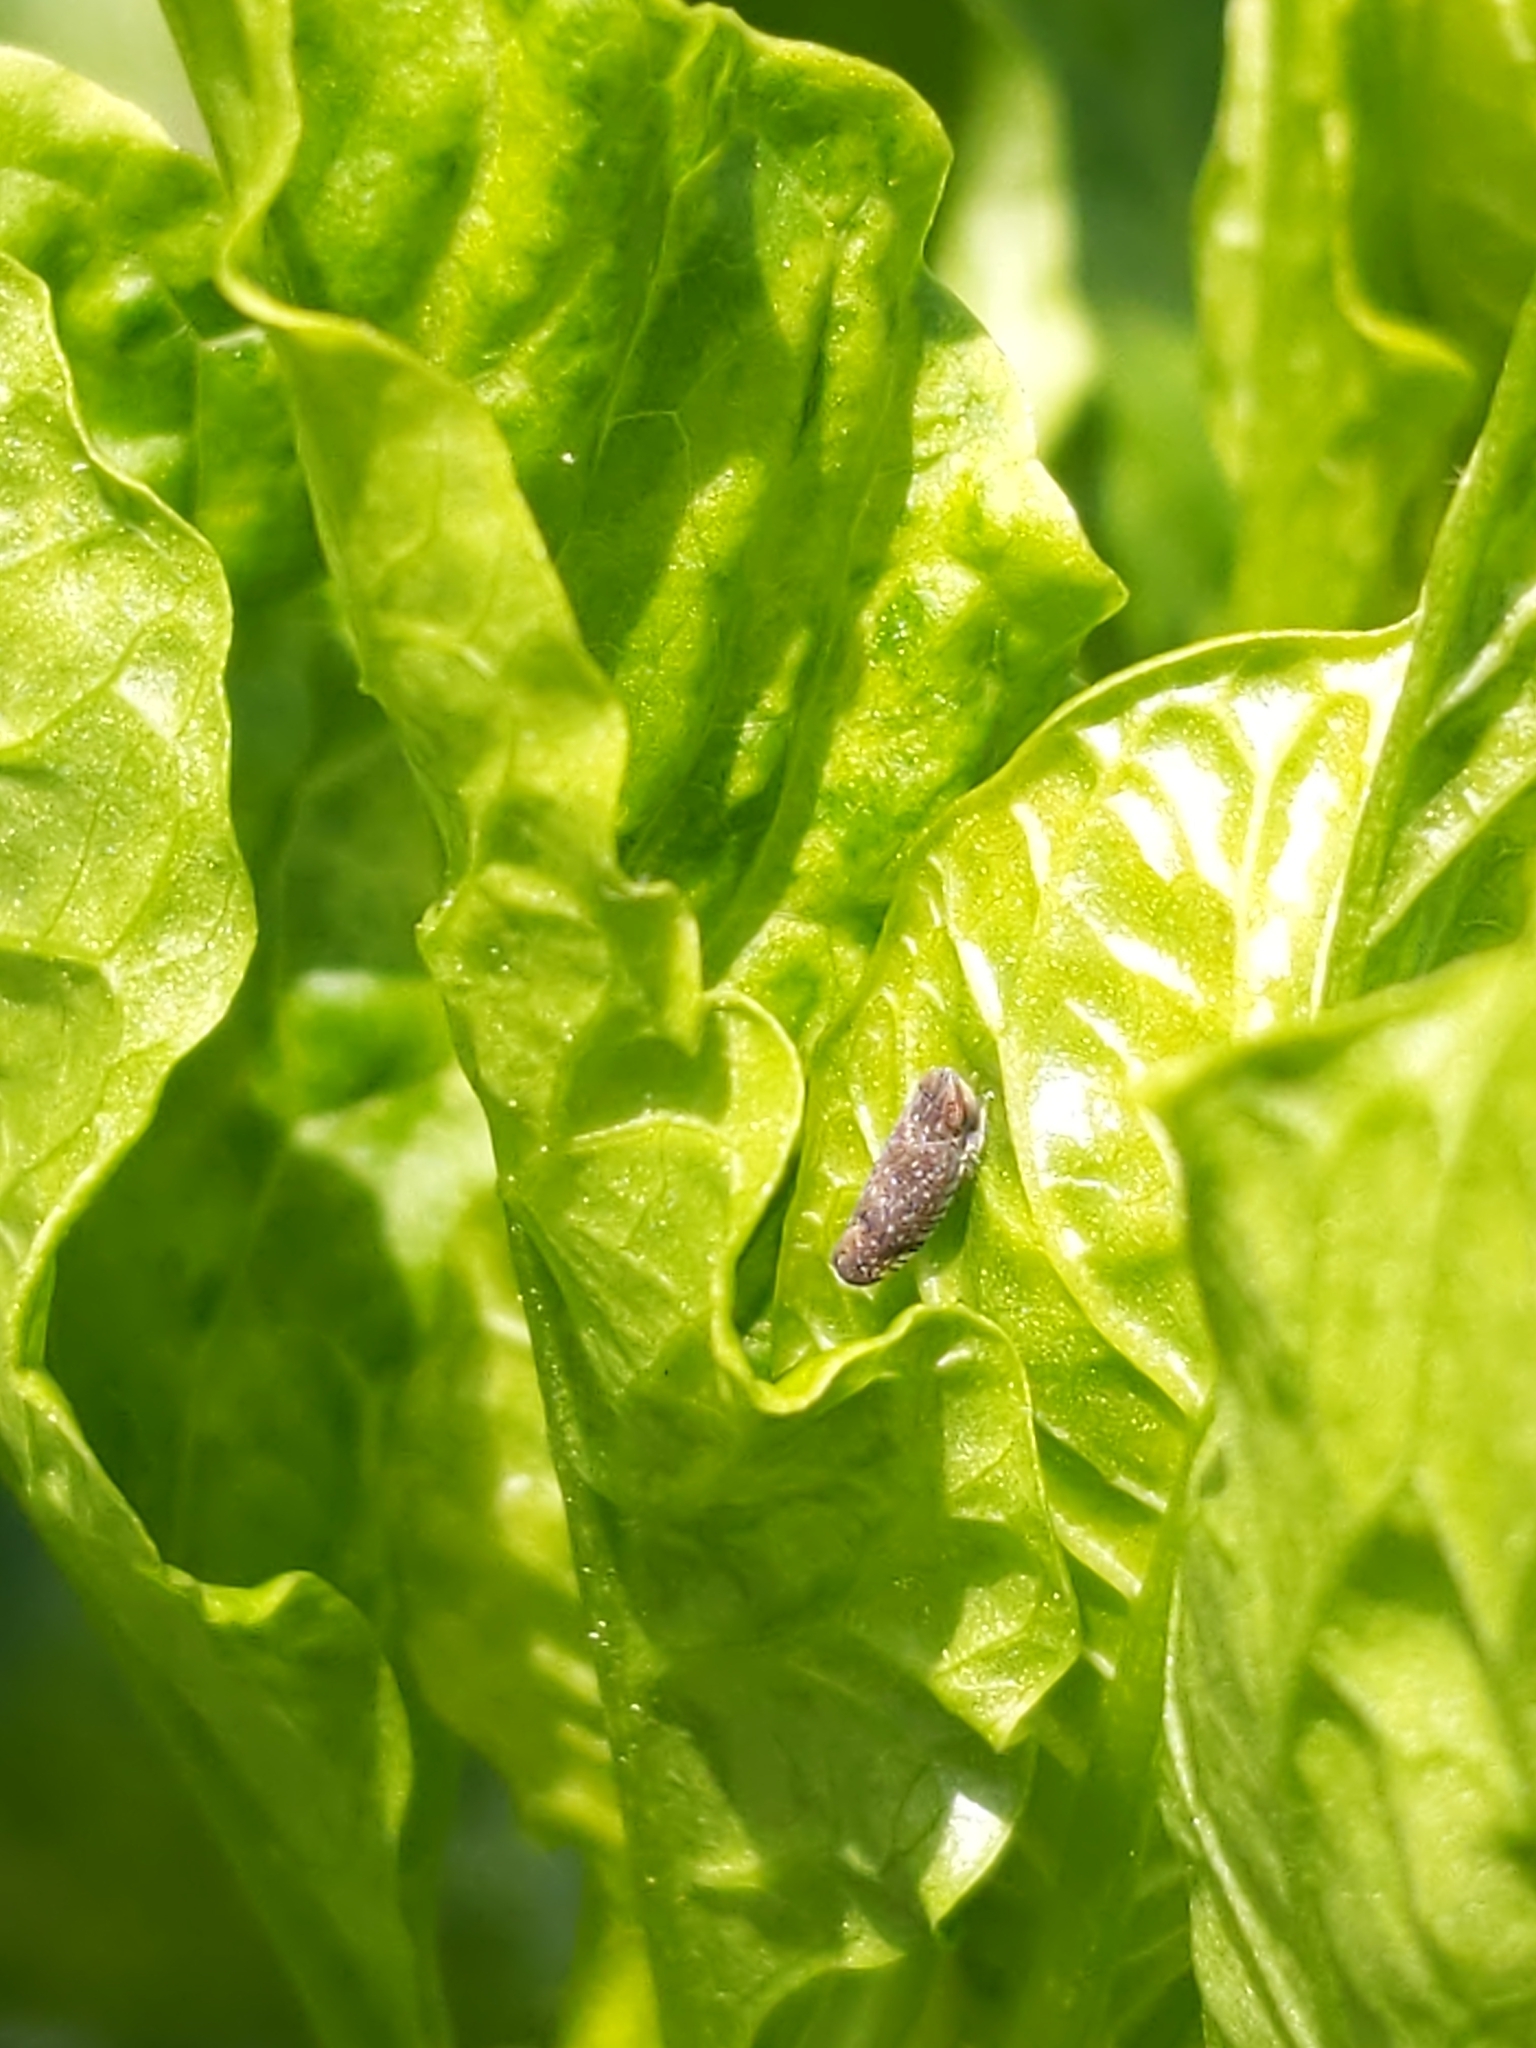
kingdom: Animalia
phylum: Arthropoda
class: Insecta
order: Hemiptera
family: Cicadellidae
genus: Scaphytopius
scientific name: Scaphytopius acutus
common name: The sharp-nosed leafhopper
